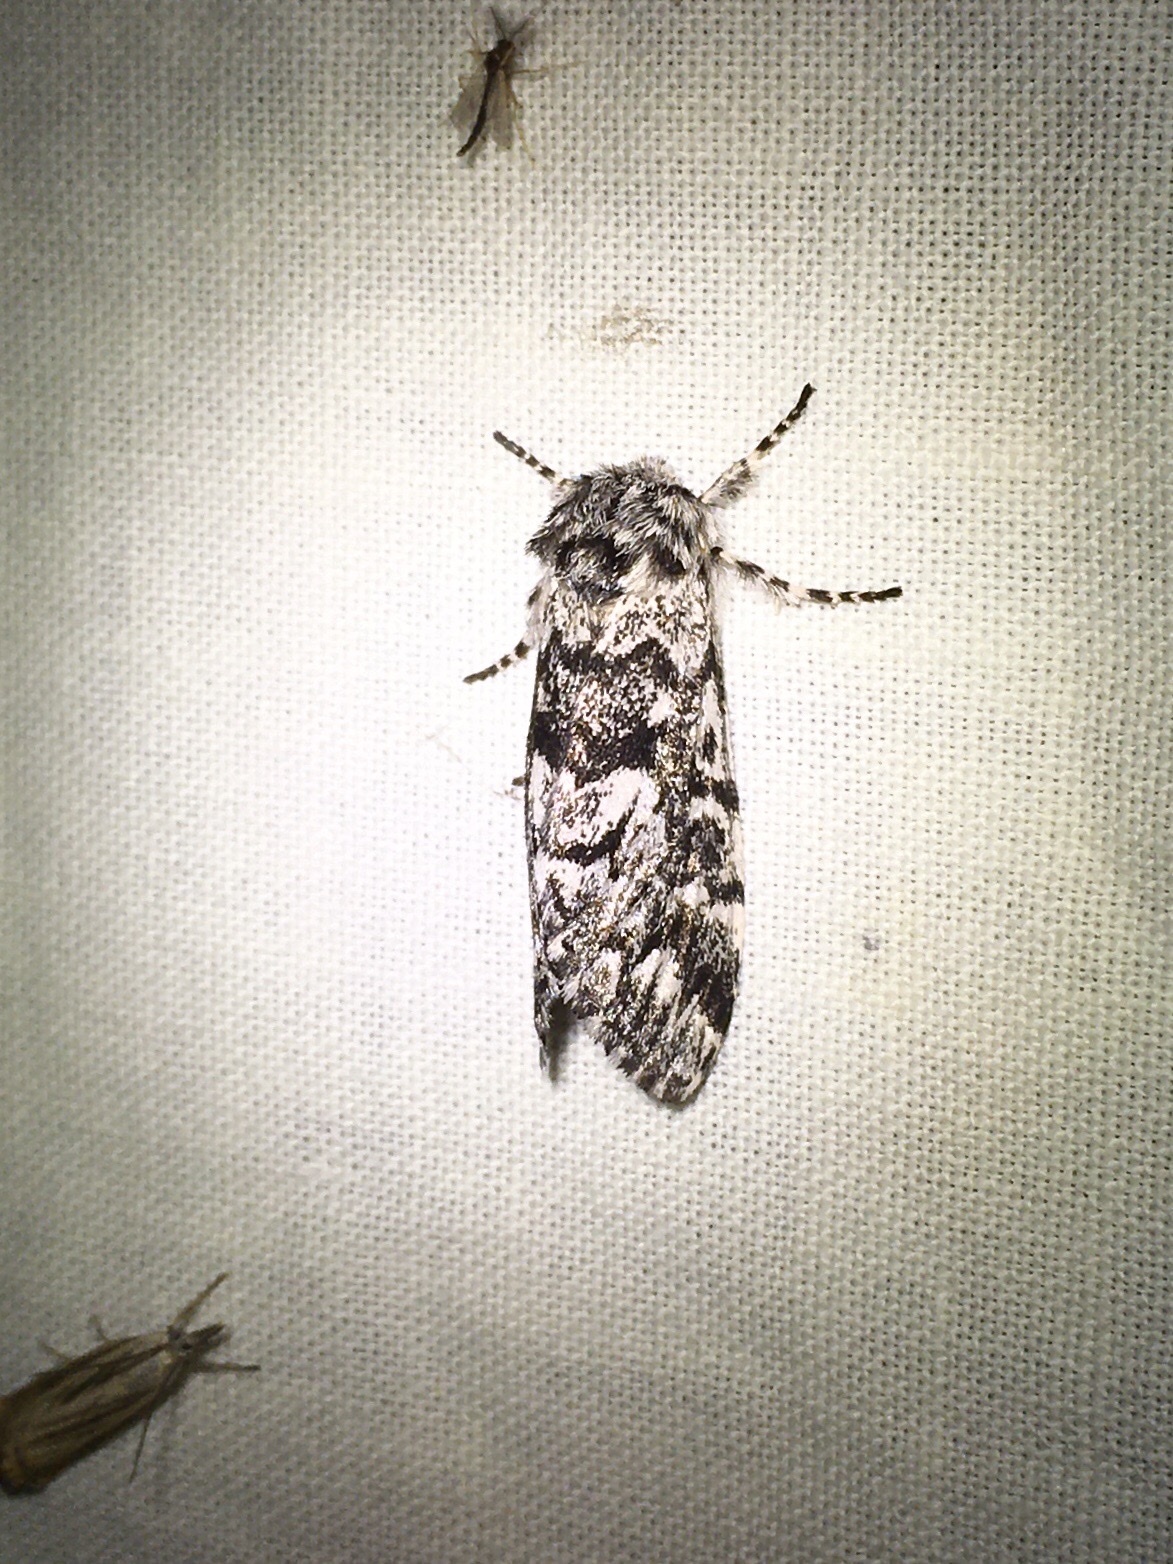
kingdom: Animalia
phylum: Arthropoda
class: Insecta
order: Lepidoptera
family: Noctuidae
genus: Panthea
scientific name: Panthea acronyctoides
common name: Black zigzag moth
